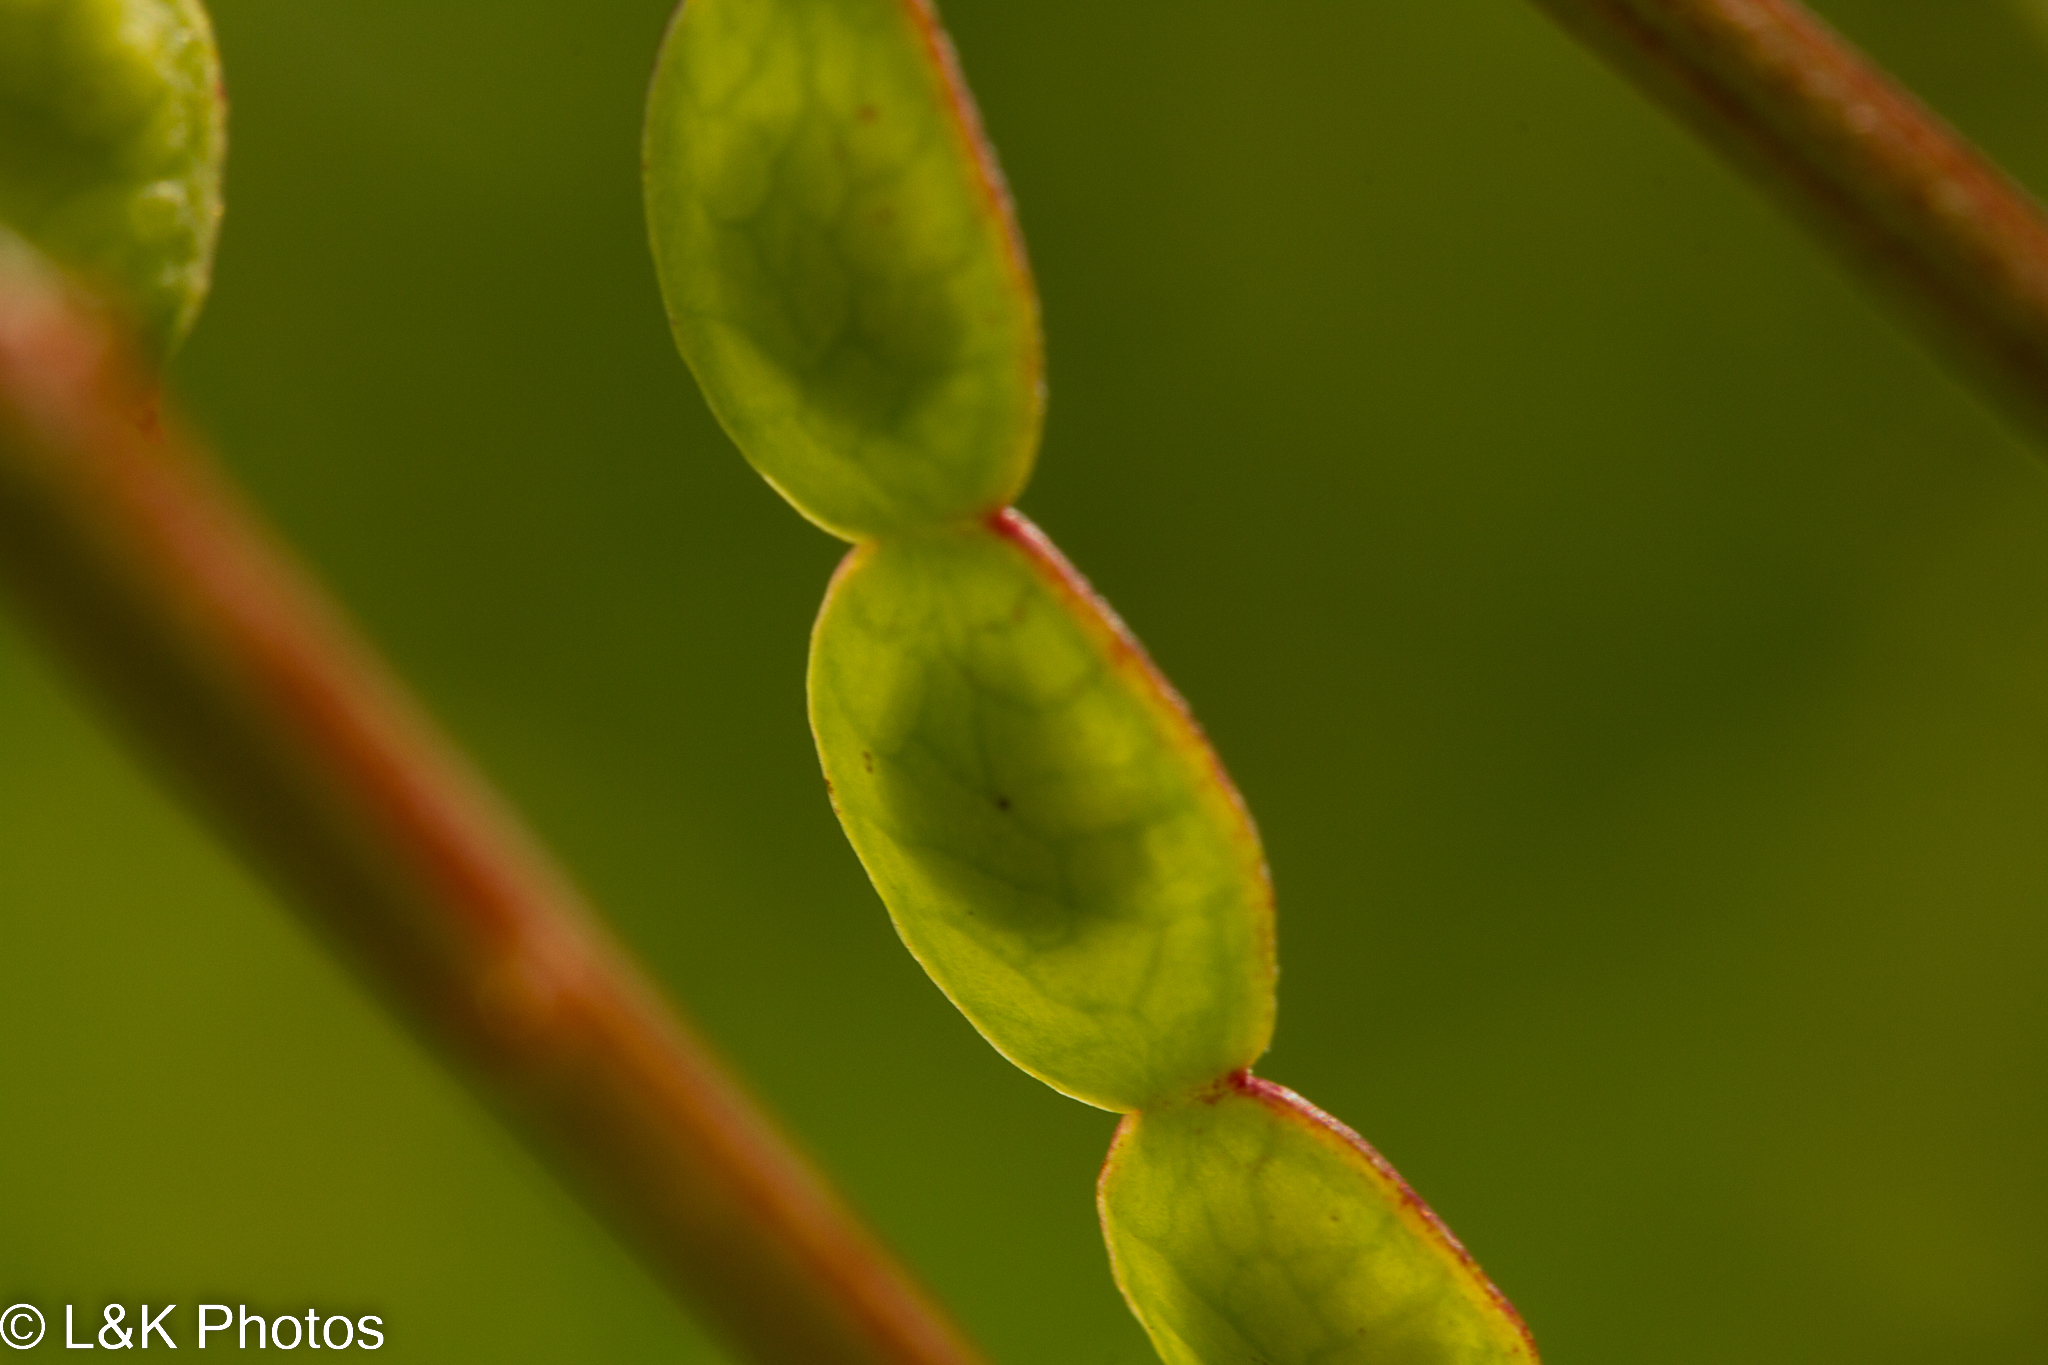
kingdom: Plantae
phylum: Tracheophyta
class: Magnoliopsida
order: Fabales
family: Fabaceae
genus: Hedysarum
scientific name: Hedysarum alpinum
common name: Alpine sweet-vetch
